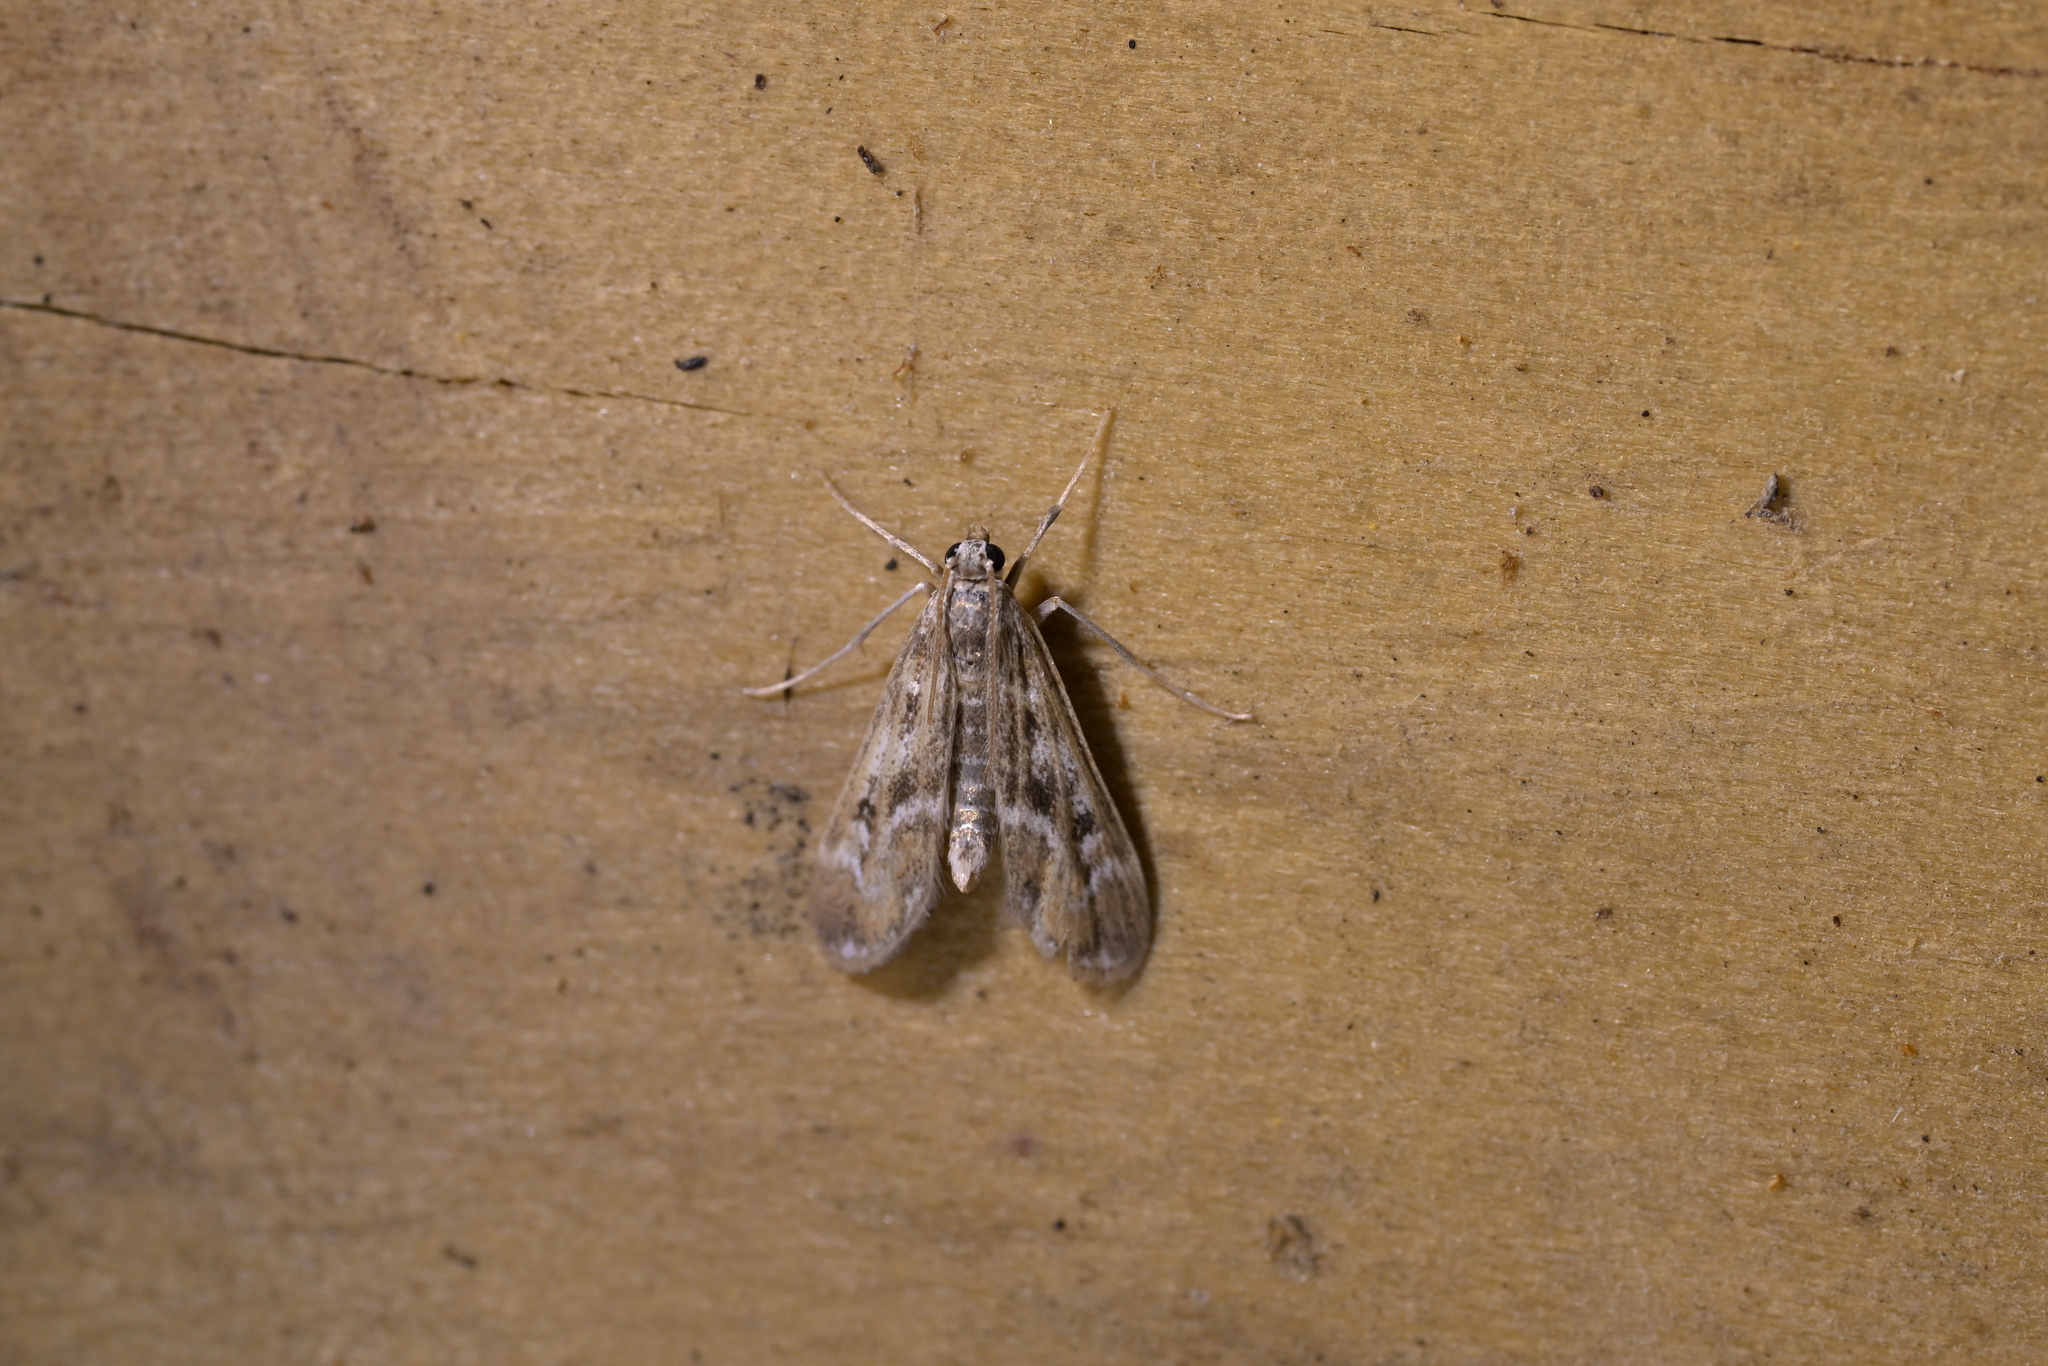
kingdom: Animalia
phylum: Arthropoda
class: Insecta
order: Lepidoptera
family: Crambidae
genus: Hygraula
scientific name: Hygraula nitens
